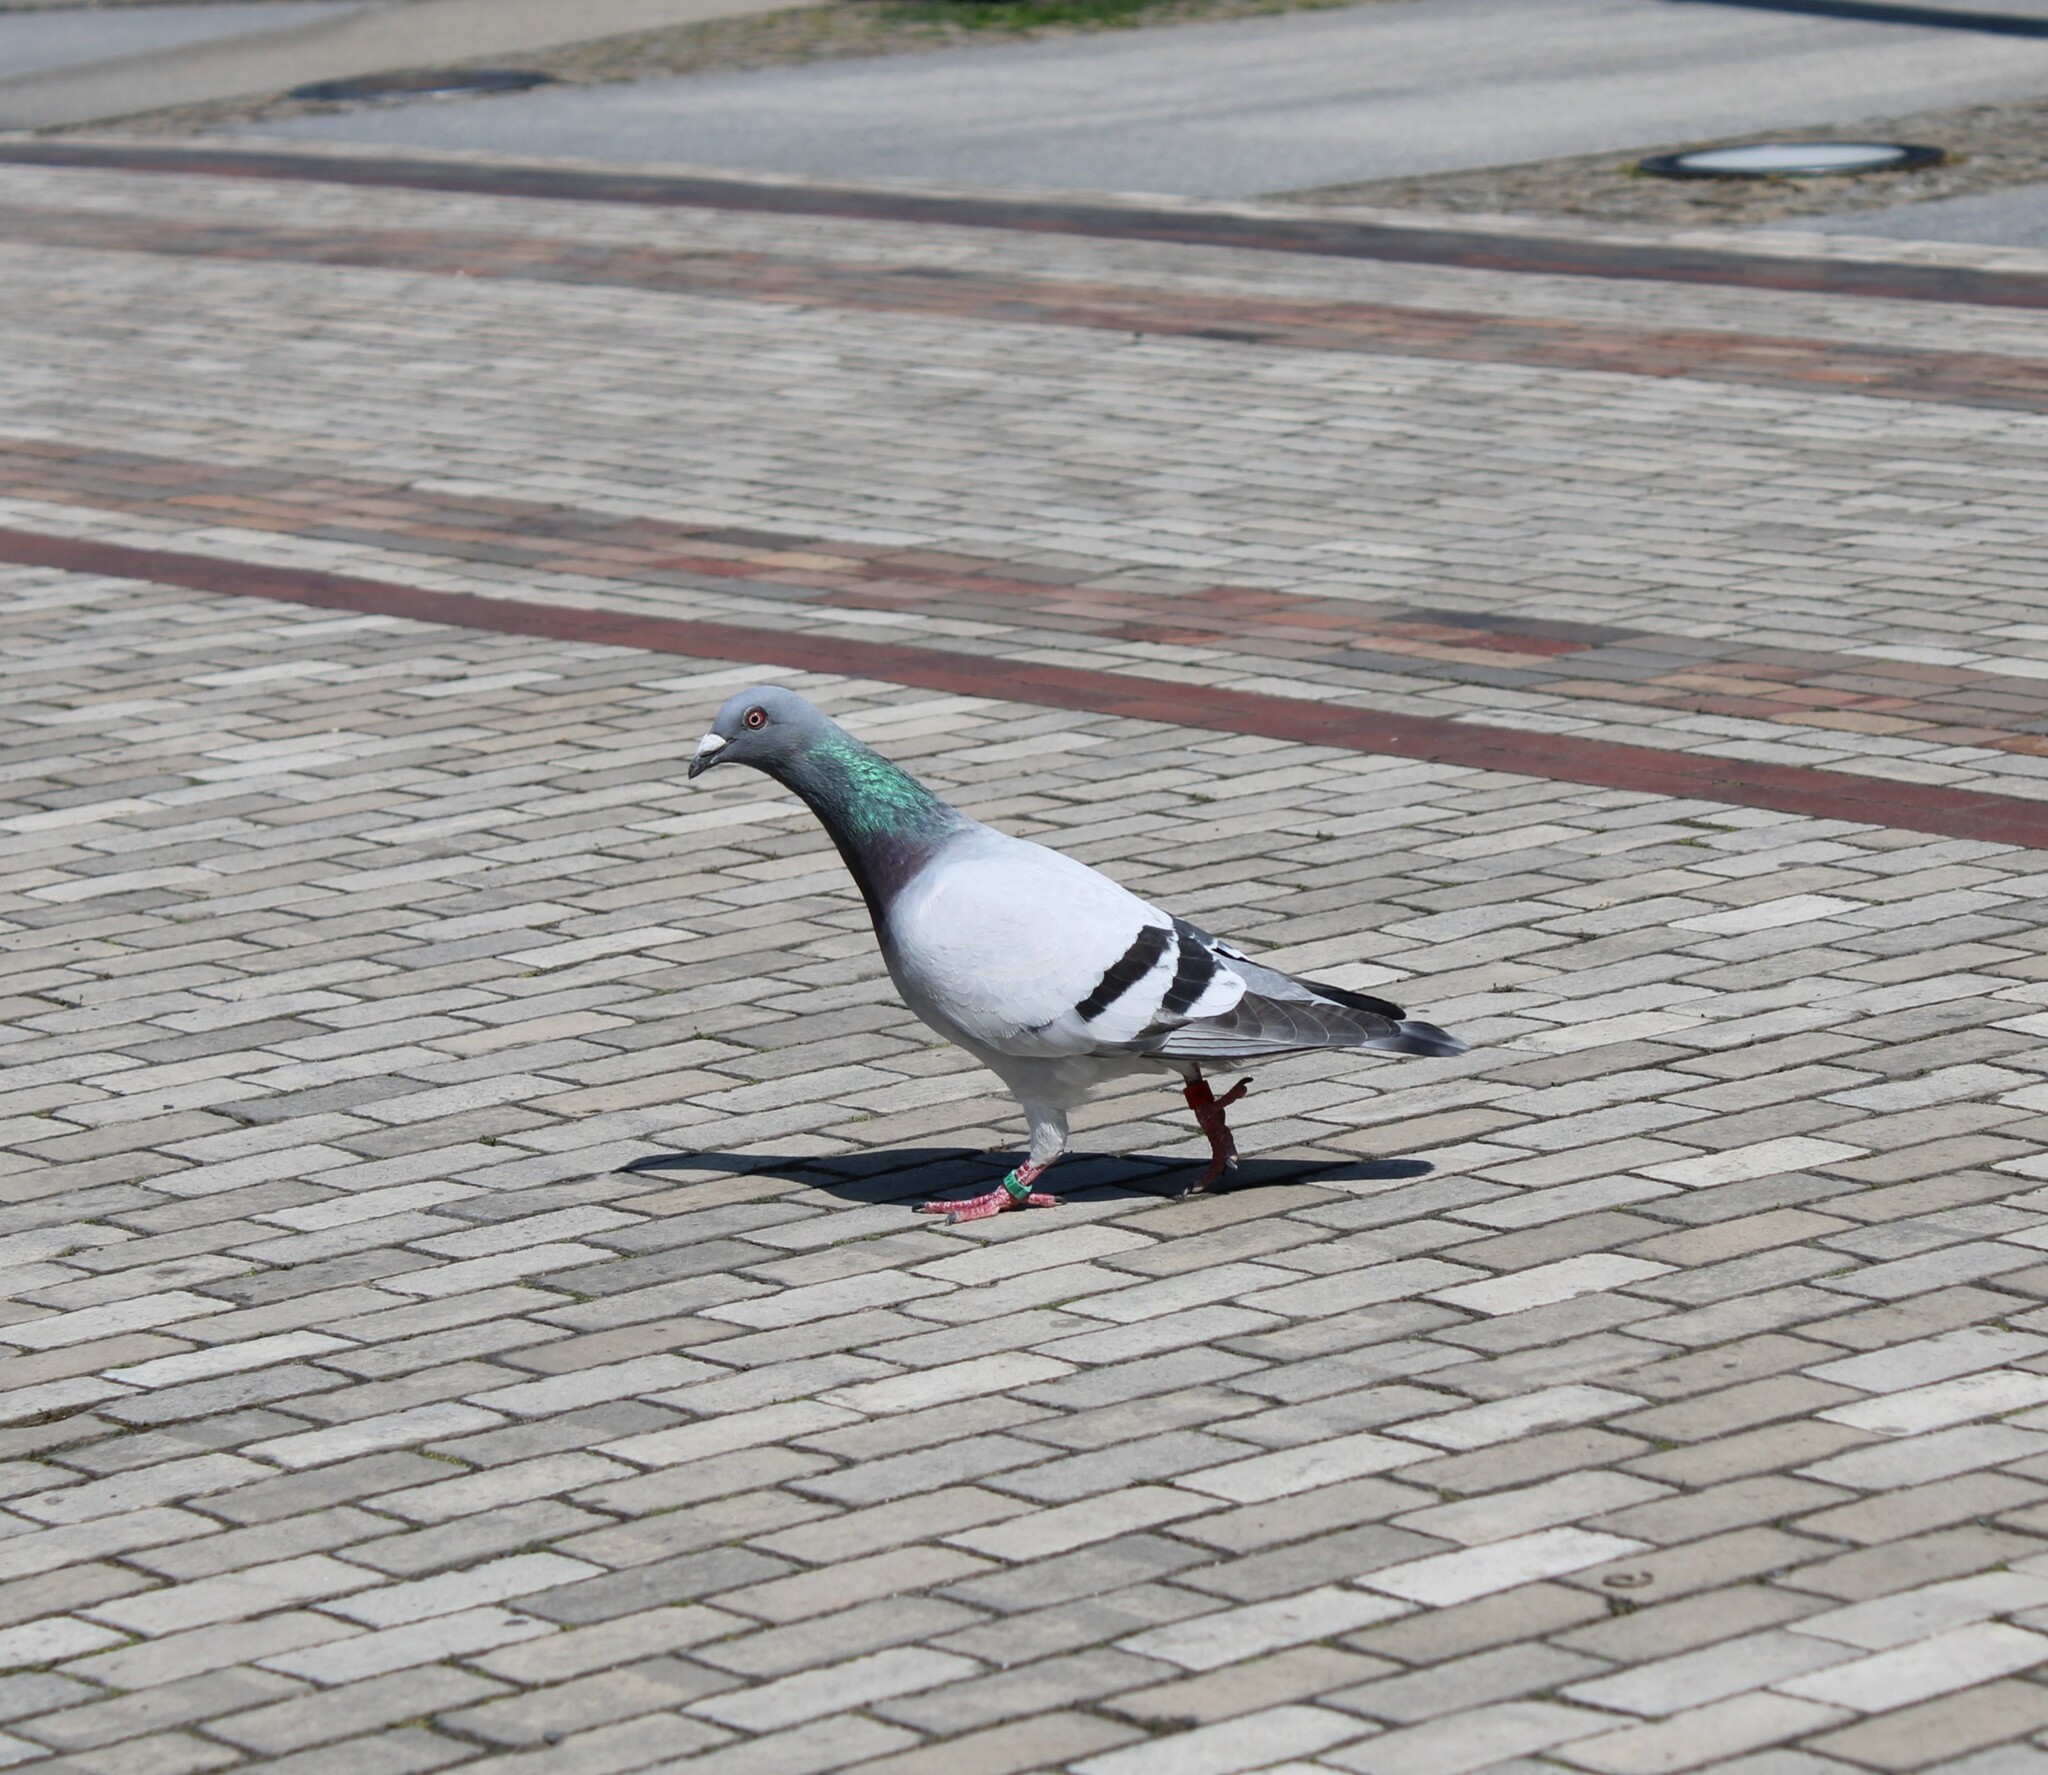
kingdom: Animalia
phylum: Chordata
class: Aves
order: Columbiformes
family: Columbidae
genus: Columba
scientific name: Columba livia
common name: Rock pigeon
